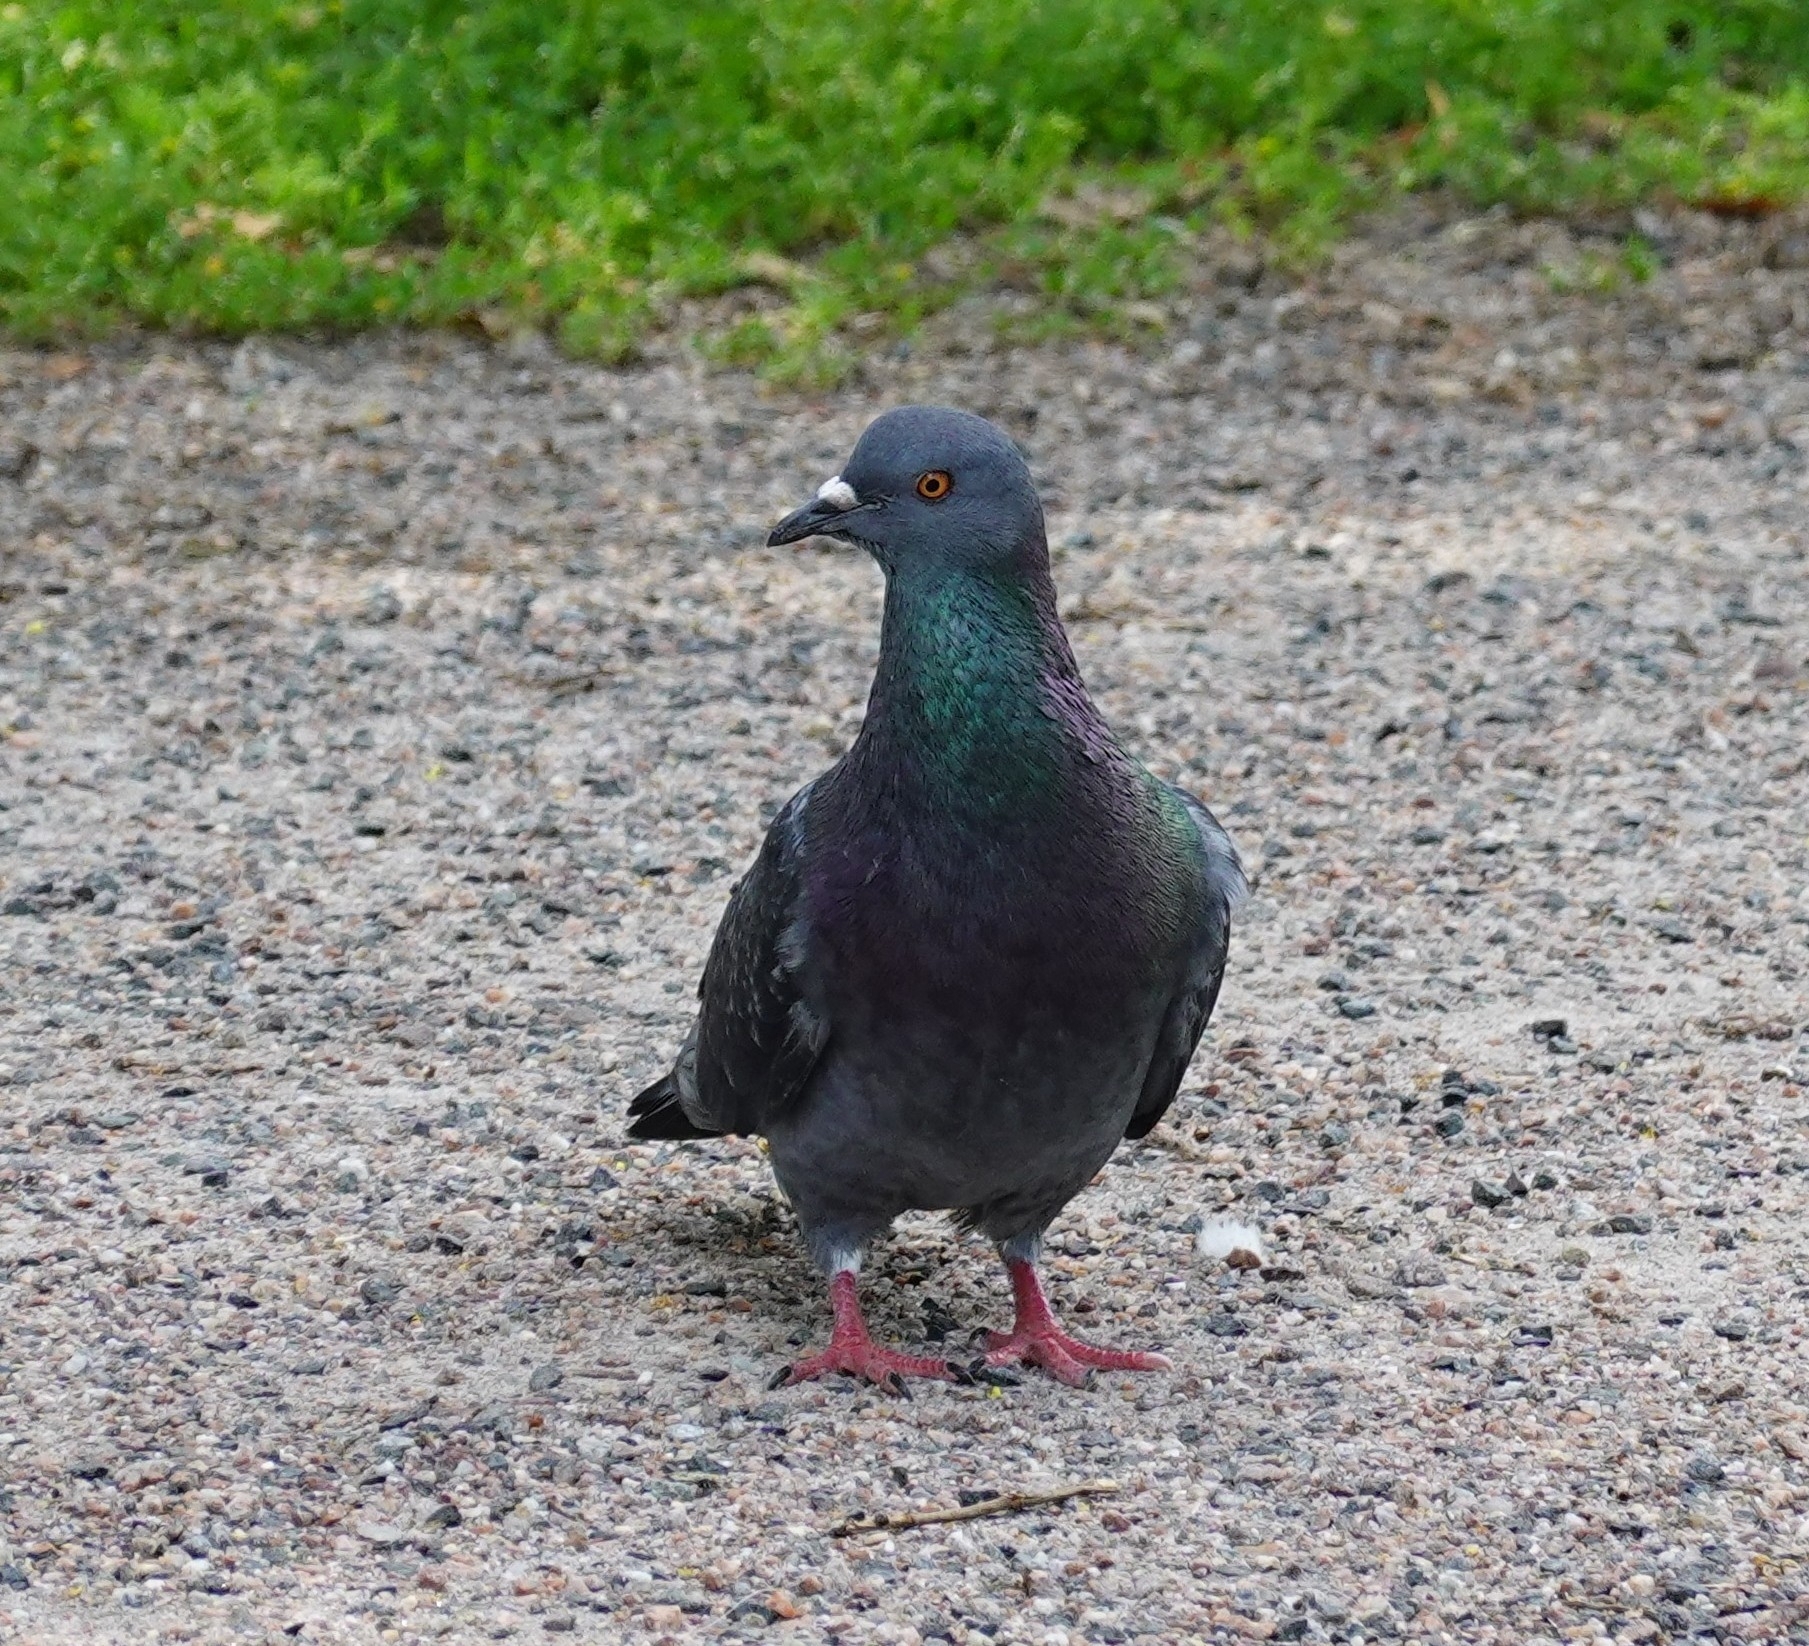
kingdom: Animalia
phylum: Chordata
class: Aves
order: Columbiformes
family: Columbidae
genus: Columba
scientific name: Columba livia
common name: Rock pigeon
